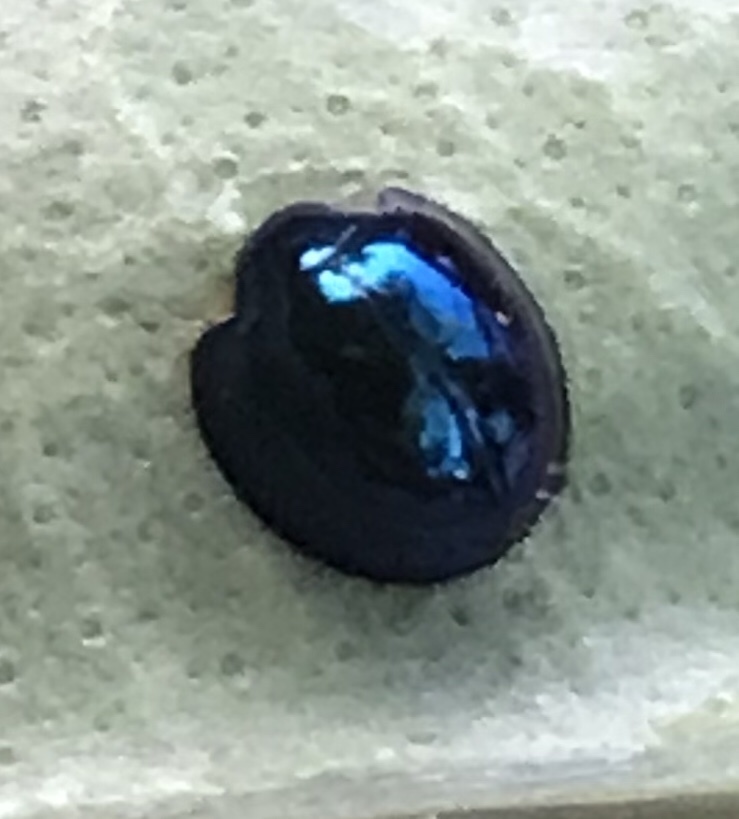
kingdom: Animalia
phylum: Arthropoda
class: Insecta
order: Coleoptera
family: Coccinellidae
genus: Halmus
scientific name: Halmus chalybeus
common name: Steel blue ladybird beetle
